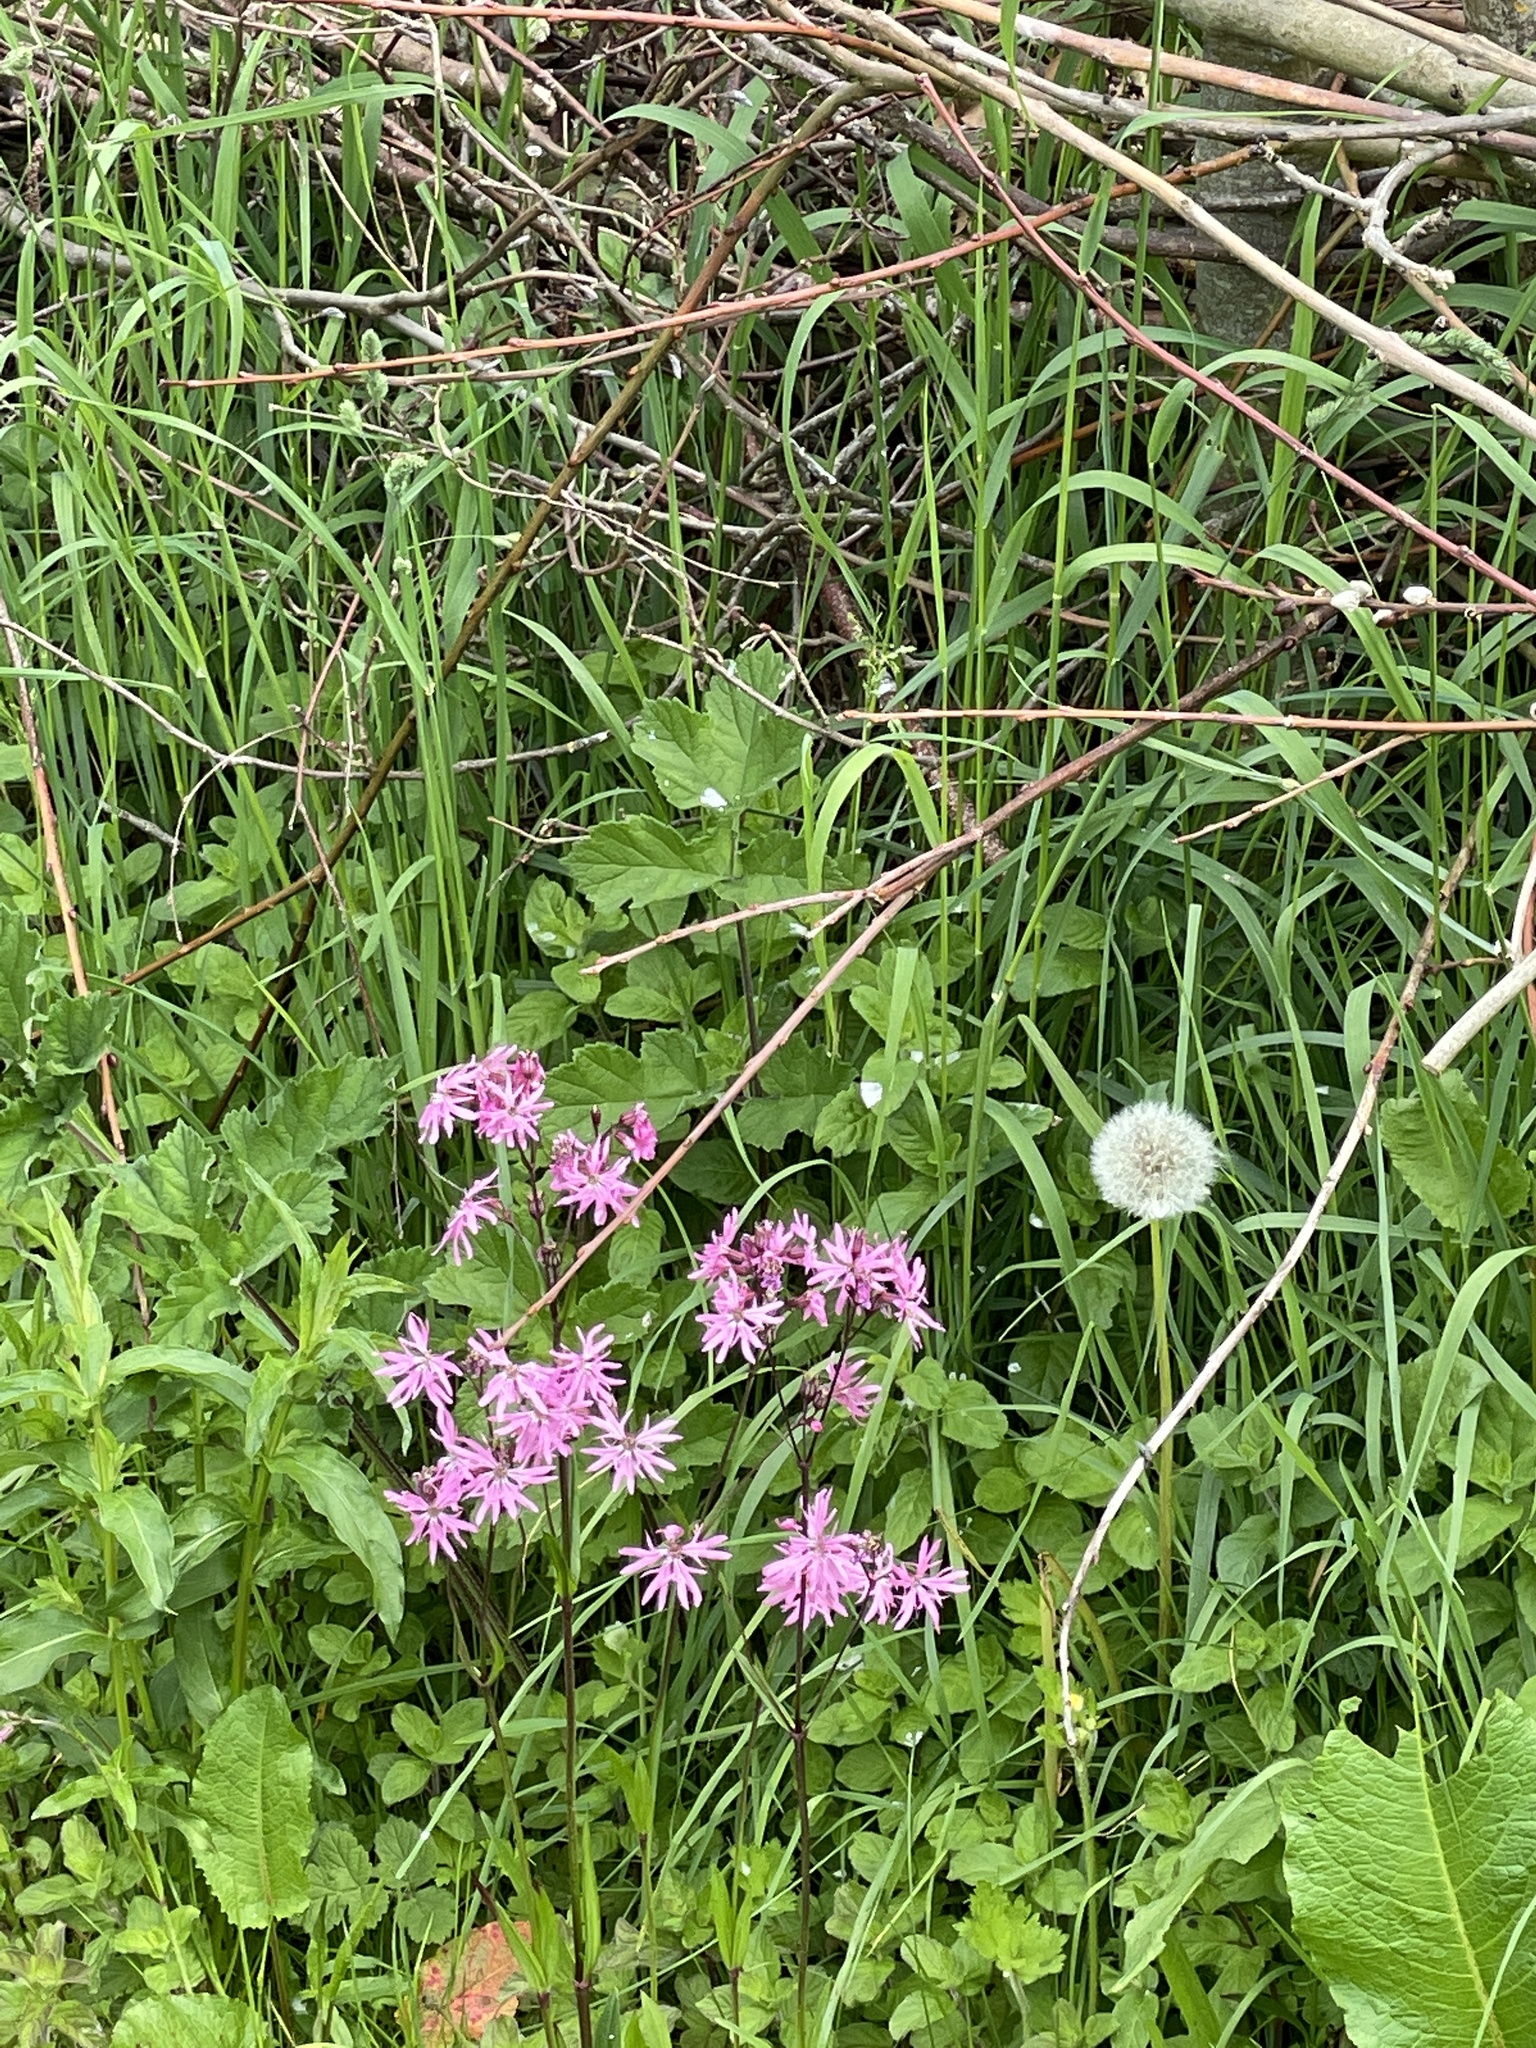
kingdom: Plantae
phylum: Tracheophyta
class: Magnoliopsida
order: Caryophyllales
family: Caryophyllaceae
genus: Silene
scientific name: Silene flos-cuculi
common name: Ragged-robin
